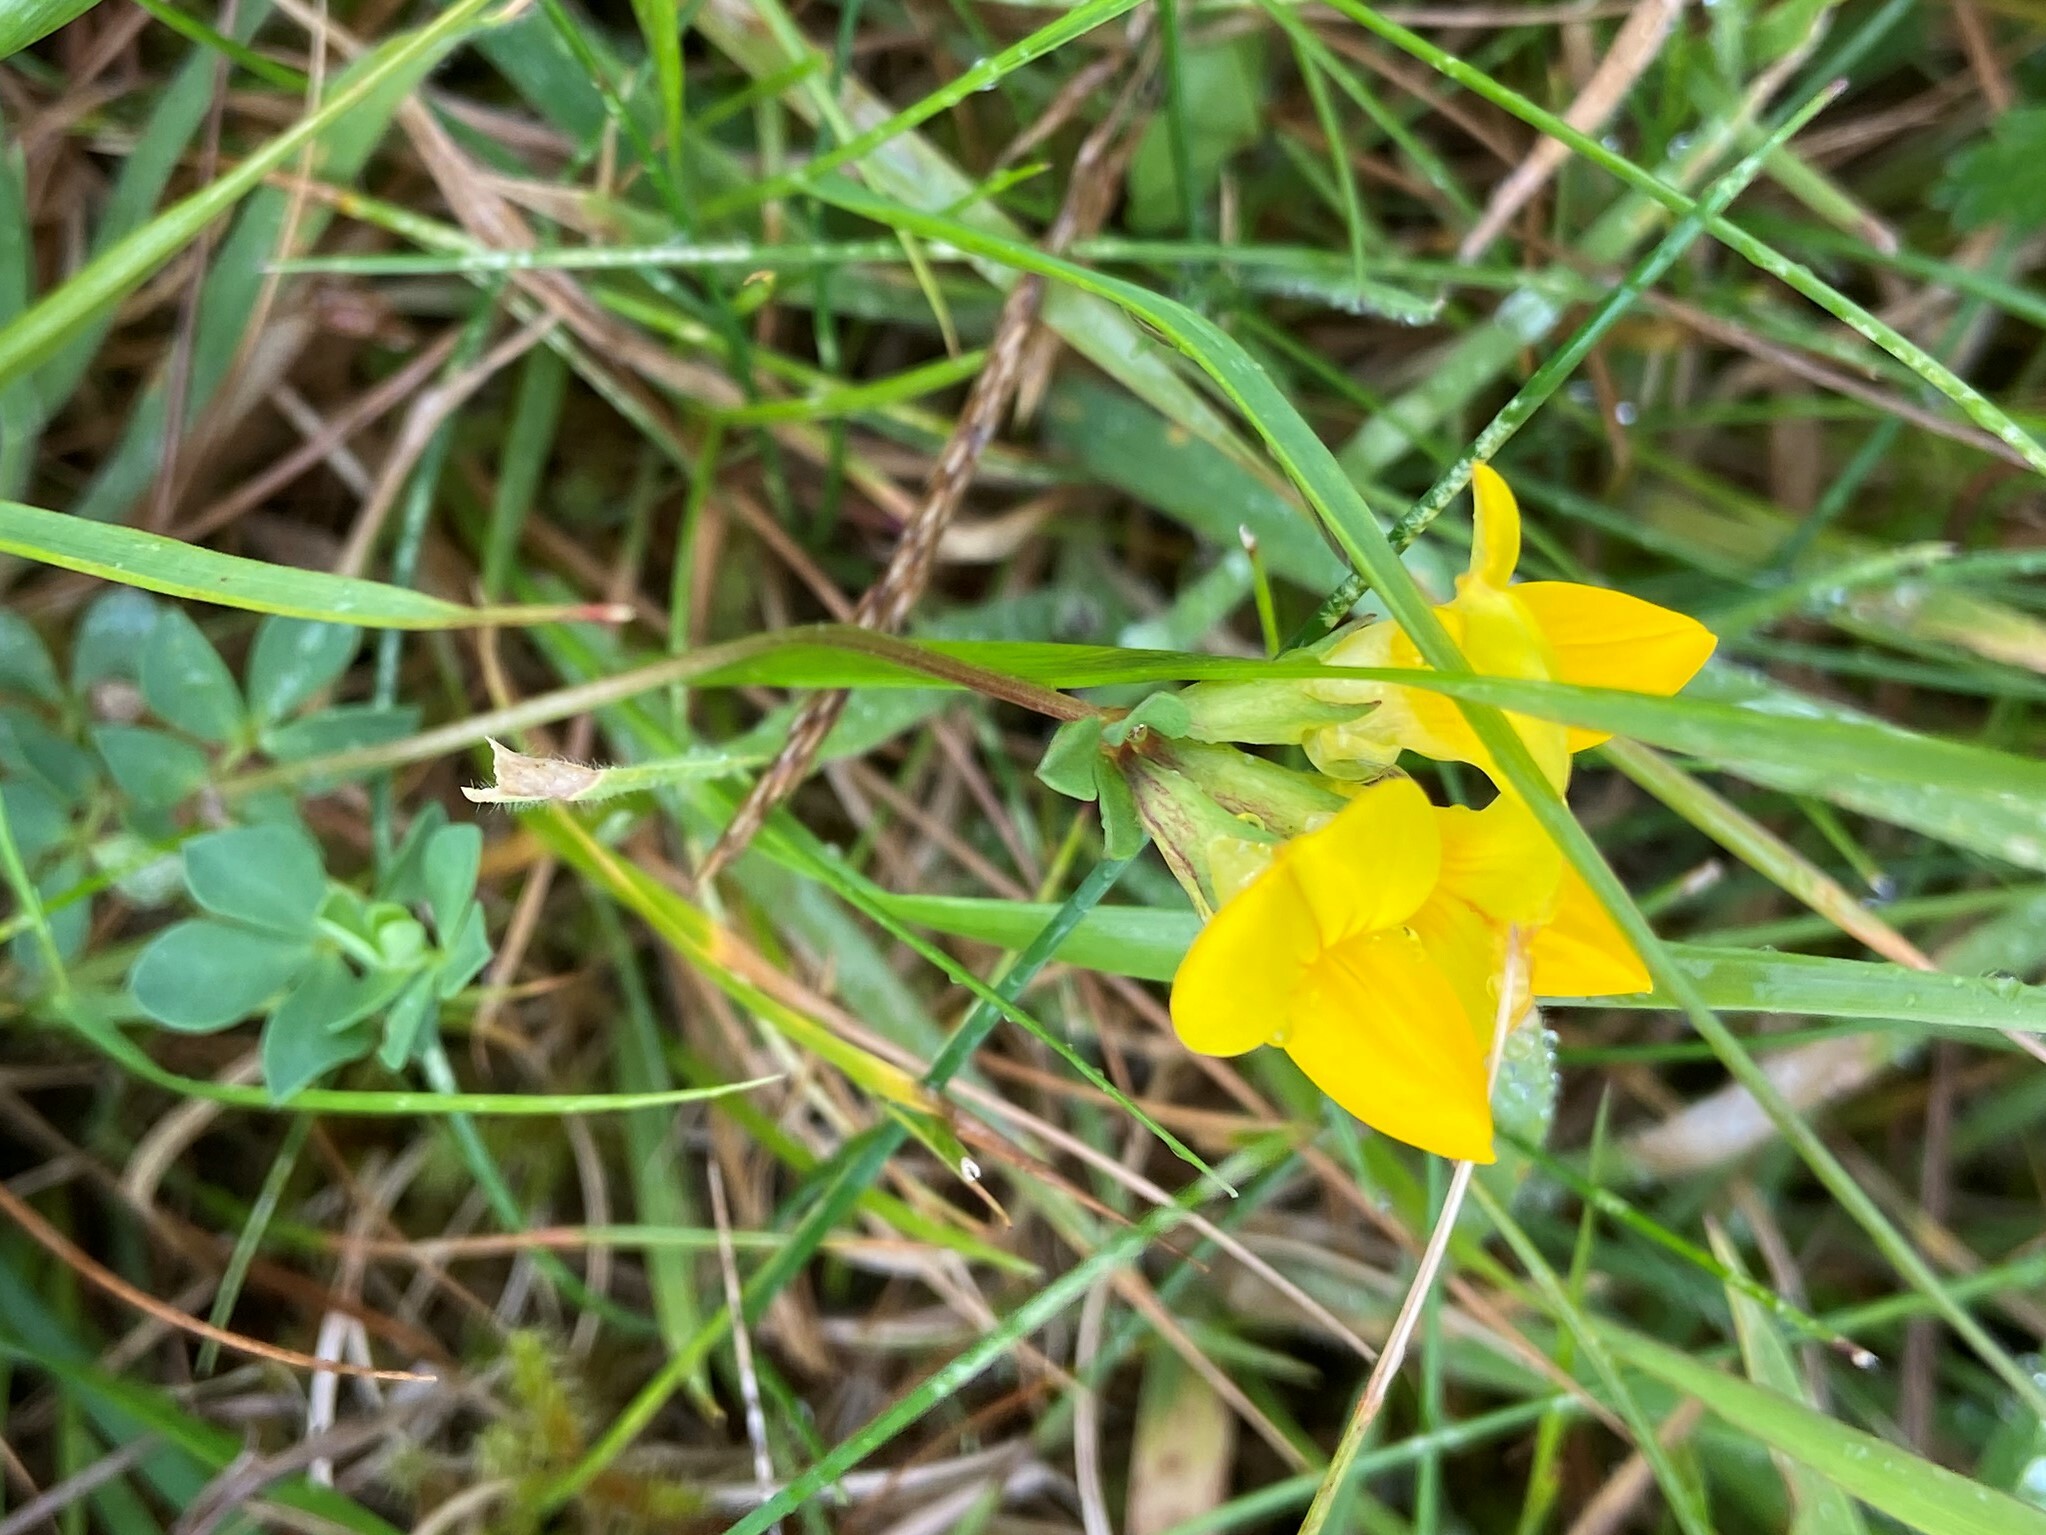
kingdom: Plantae
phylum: Tracheophyta
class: Magnoliopsida
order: Fabales
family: Fabaceae
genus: Lotus
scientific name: Lotus corniculatus
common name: Common bird's-foot-trefoil
